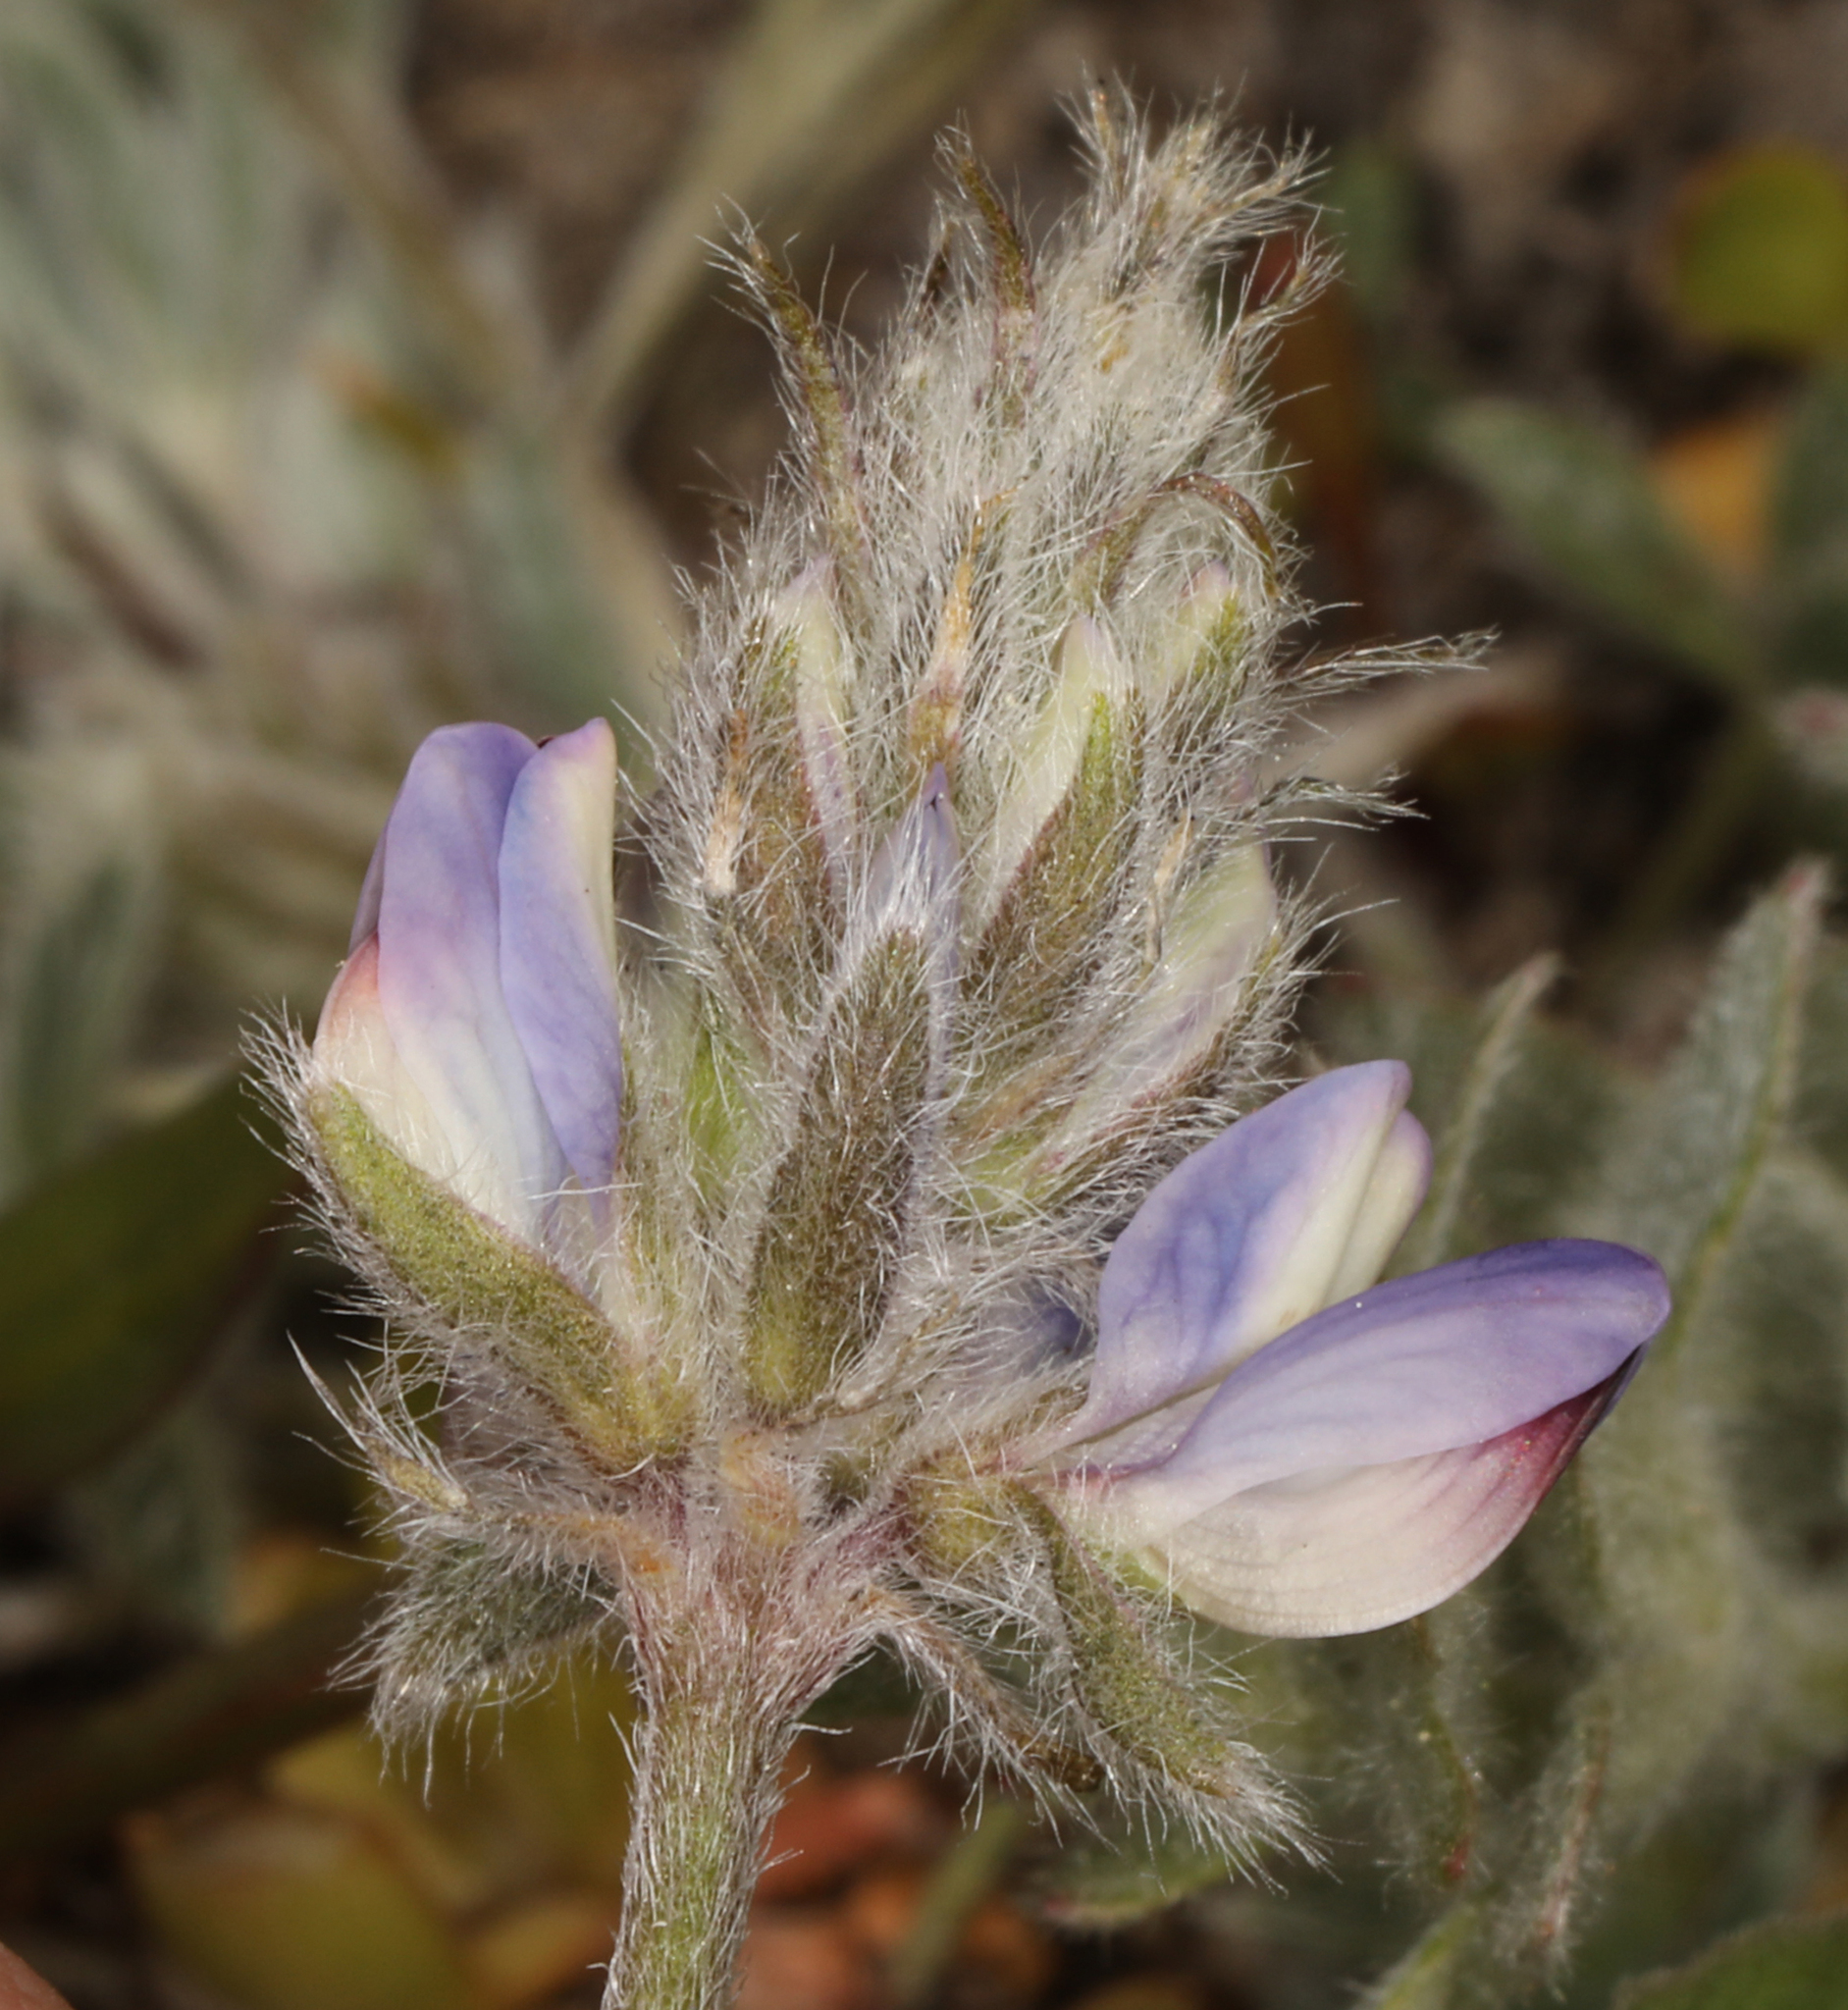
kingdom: Plantae
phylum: Tracheophyta
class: Magnoliopsida
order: Fabales
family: Fabaceae
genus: Lupinus
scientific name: Lupinus sellulus
